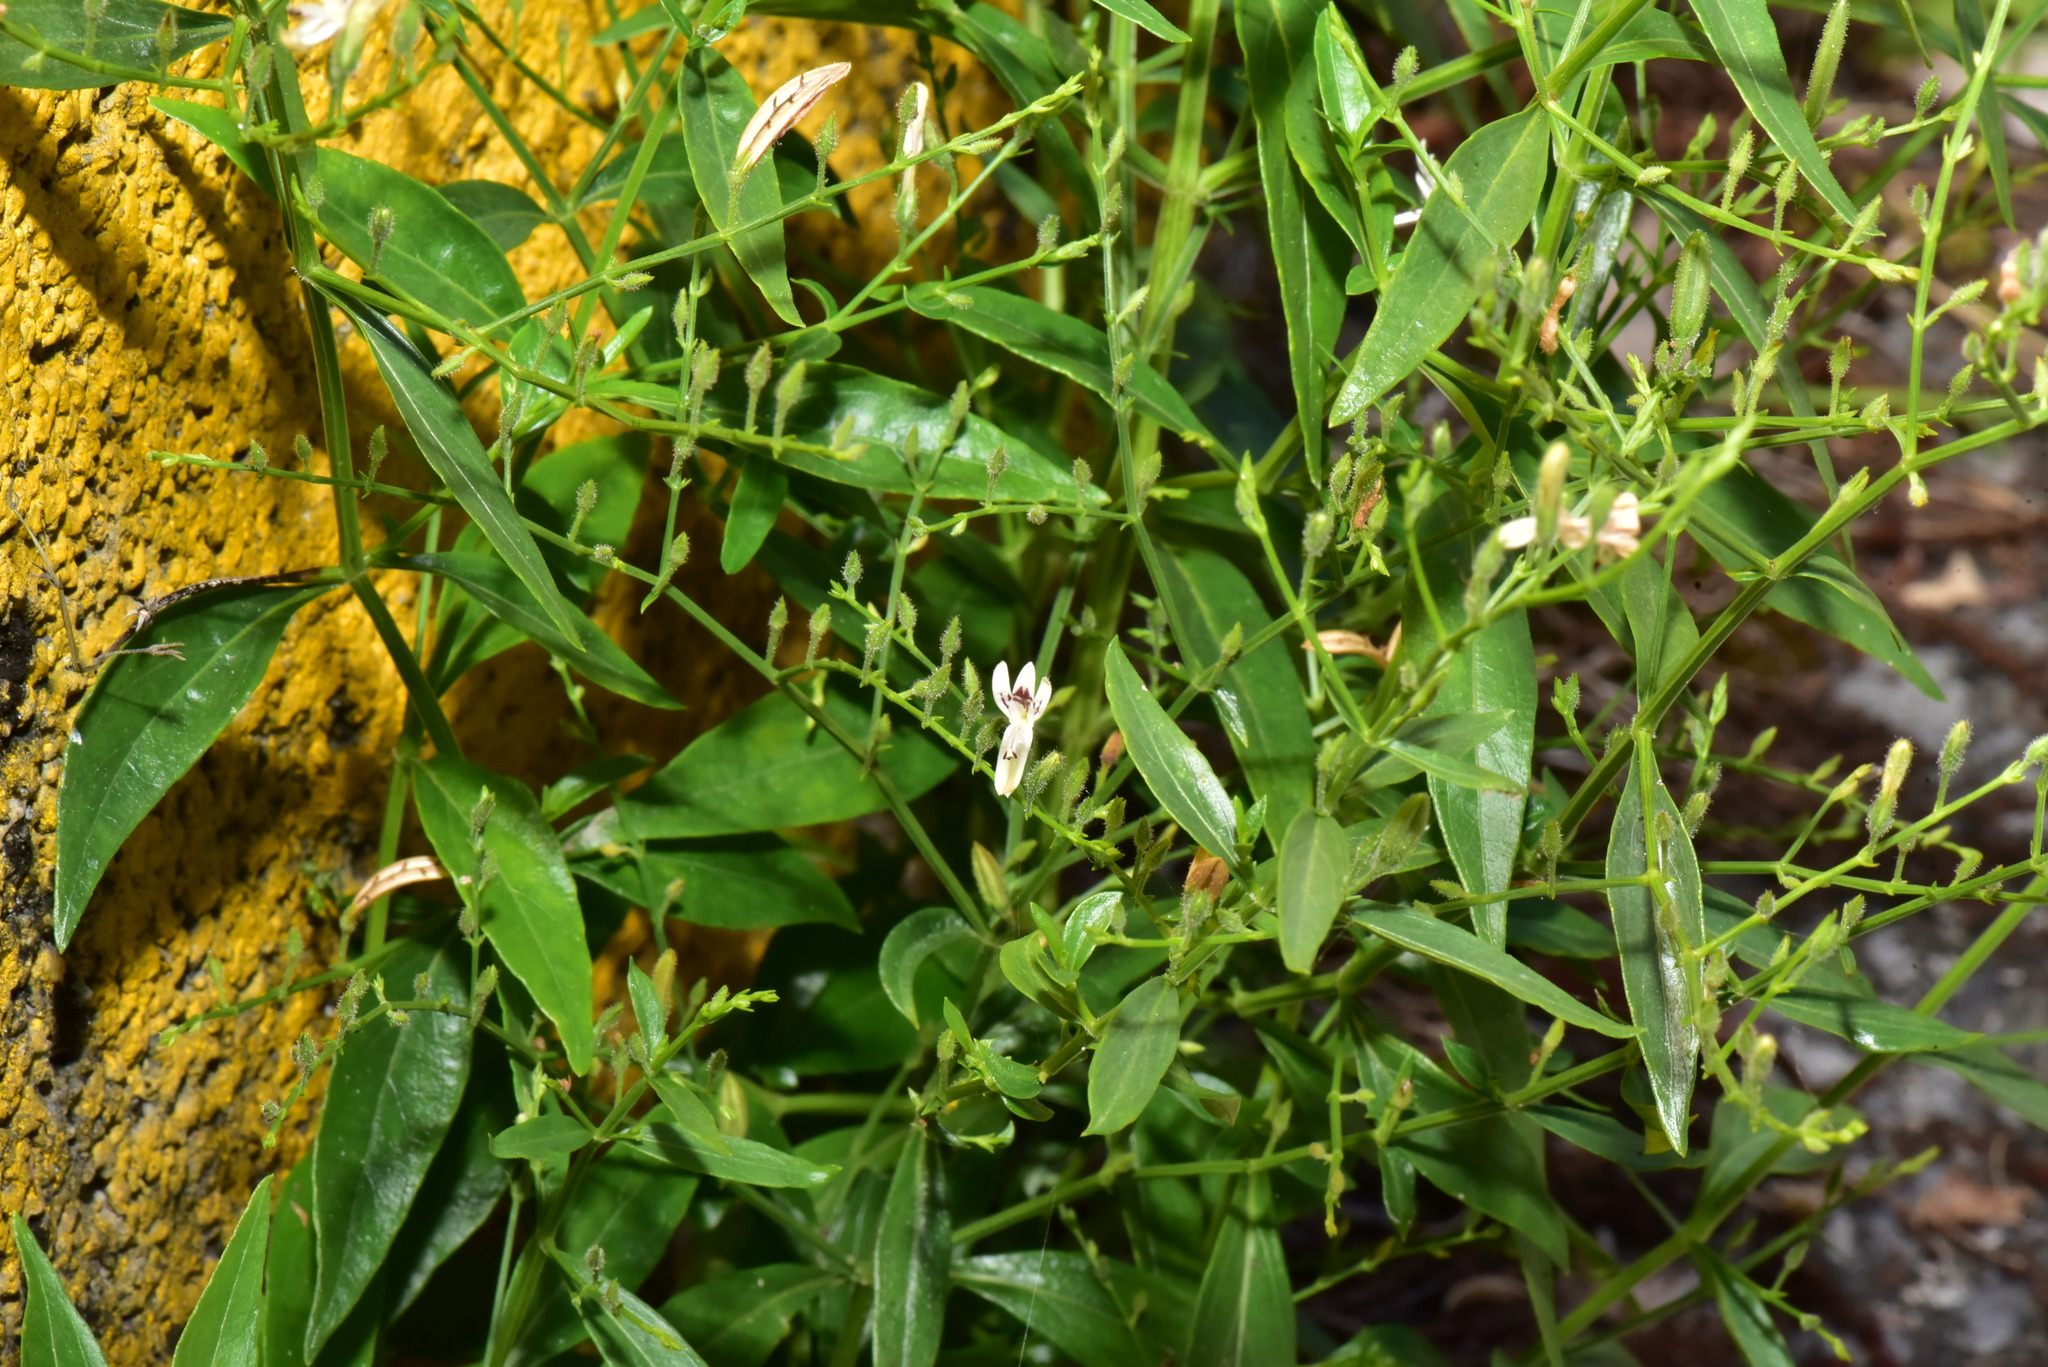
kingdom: Plantae
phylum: Tracheophyta
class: Magnoliopsida
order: Lamiales
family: Acanthaceae
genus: Andrographis
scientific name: Andrographis paniculata
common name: Green chireta
